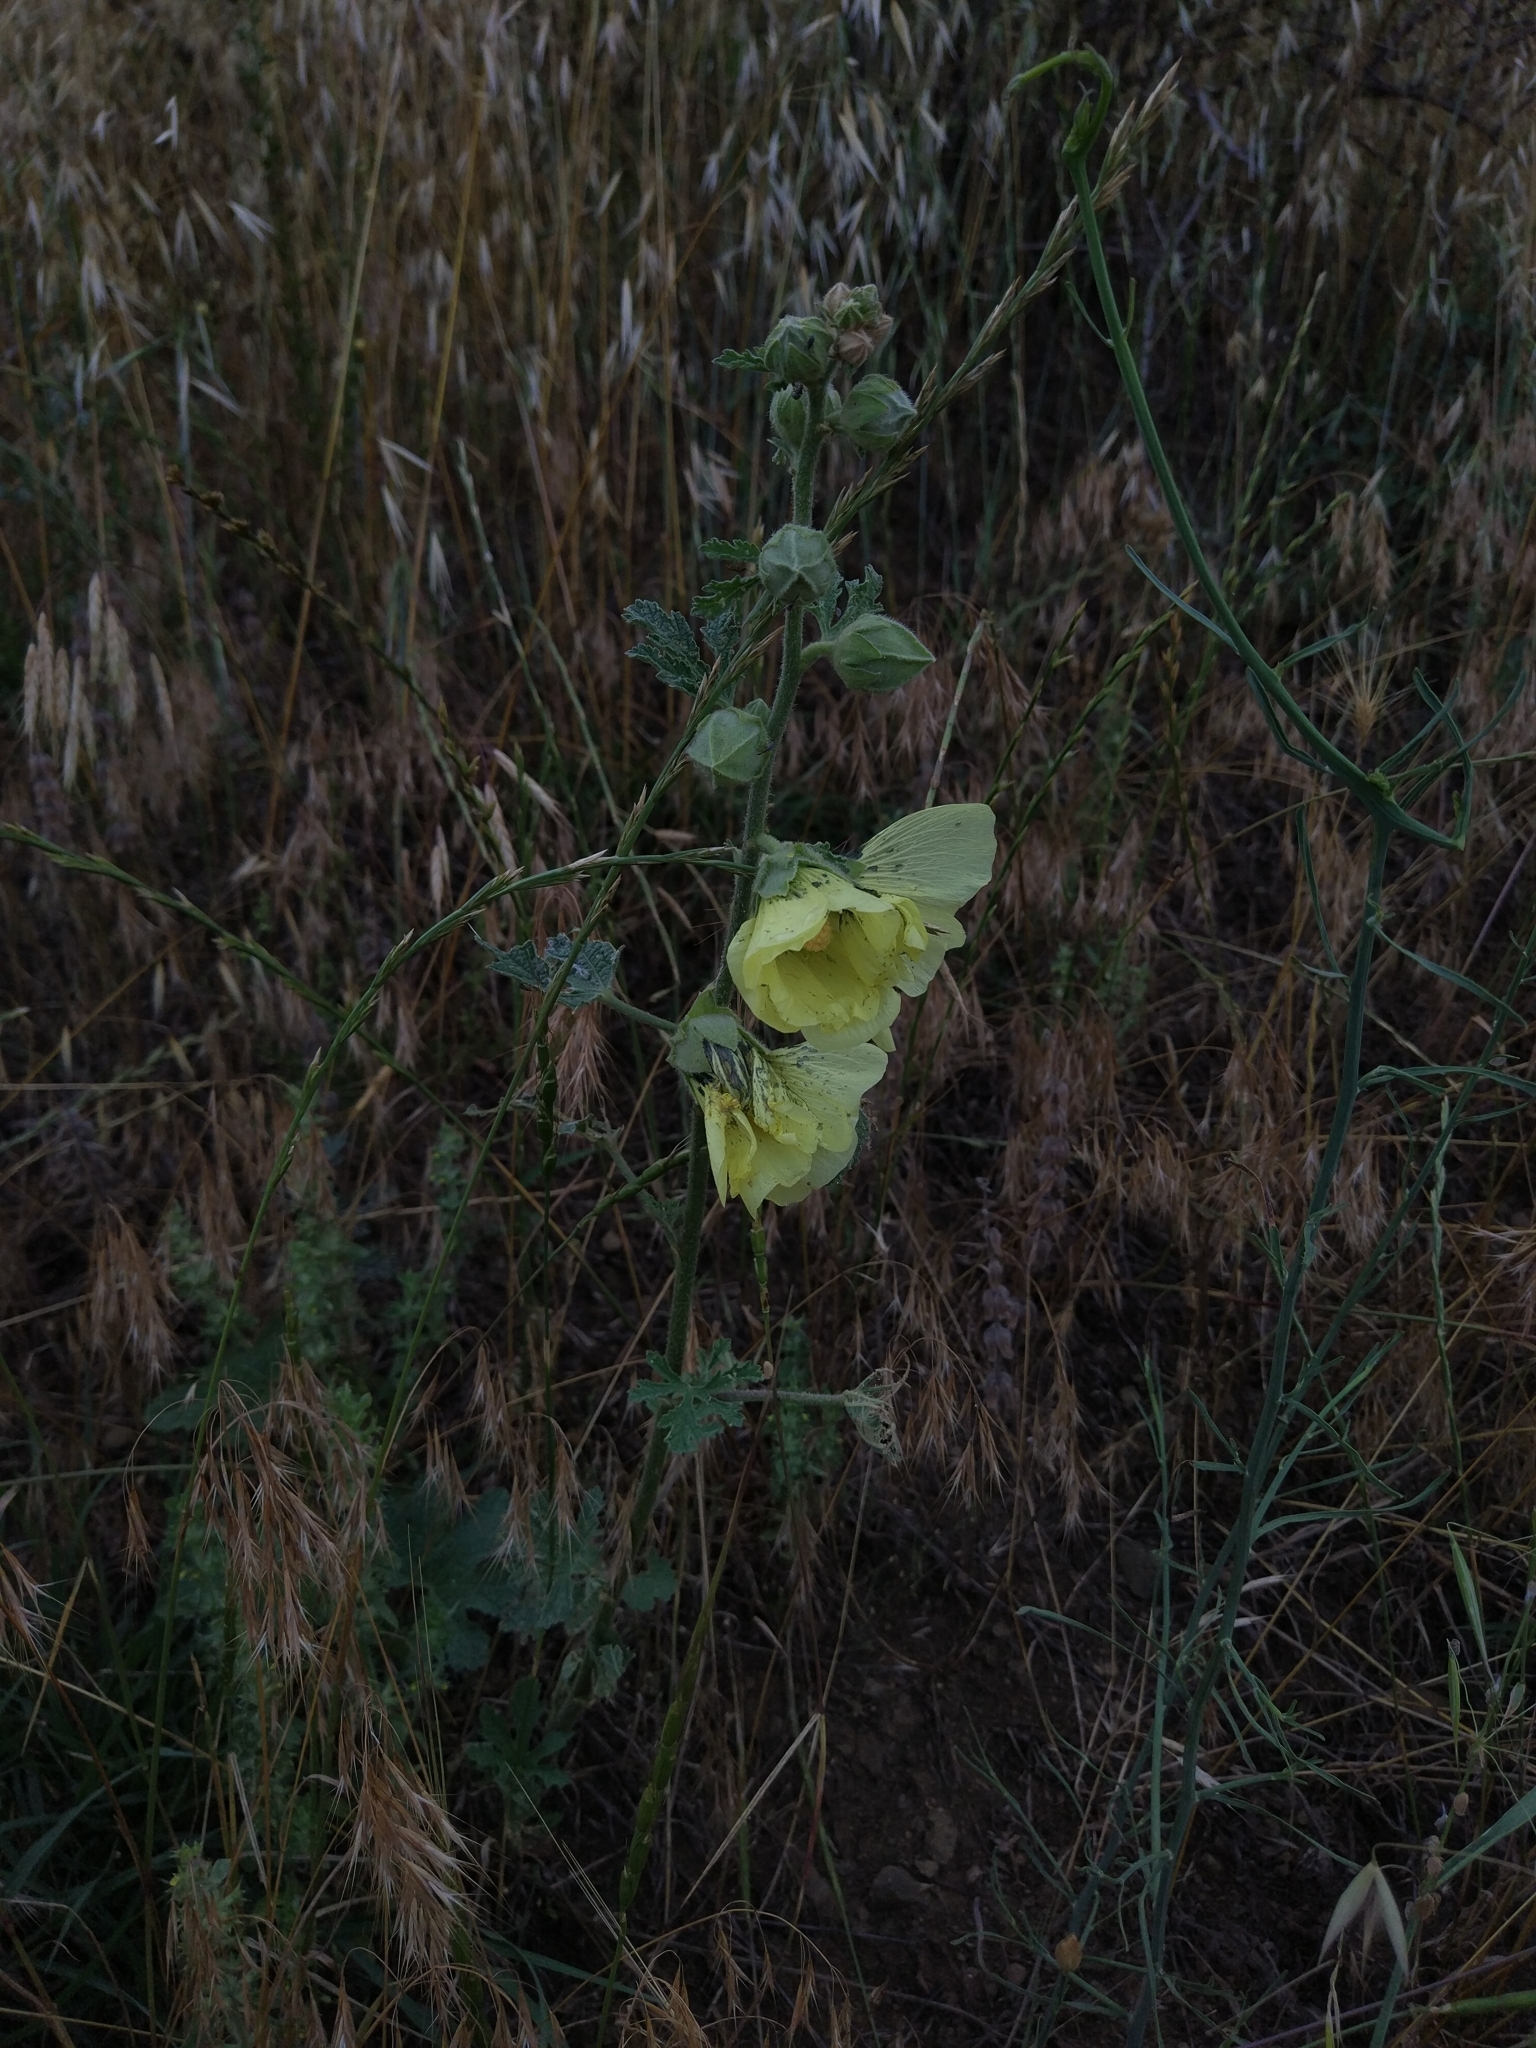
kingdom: Plantae
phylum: Tracheophyta
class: Magnoliopsida
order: Malvales
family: Malvaceae
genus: Alcea
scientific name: Alcea rugosa
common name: Russian hollyhock
